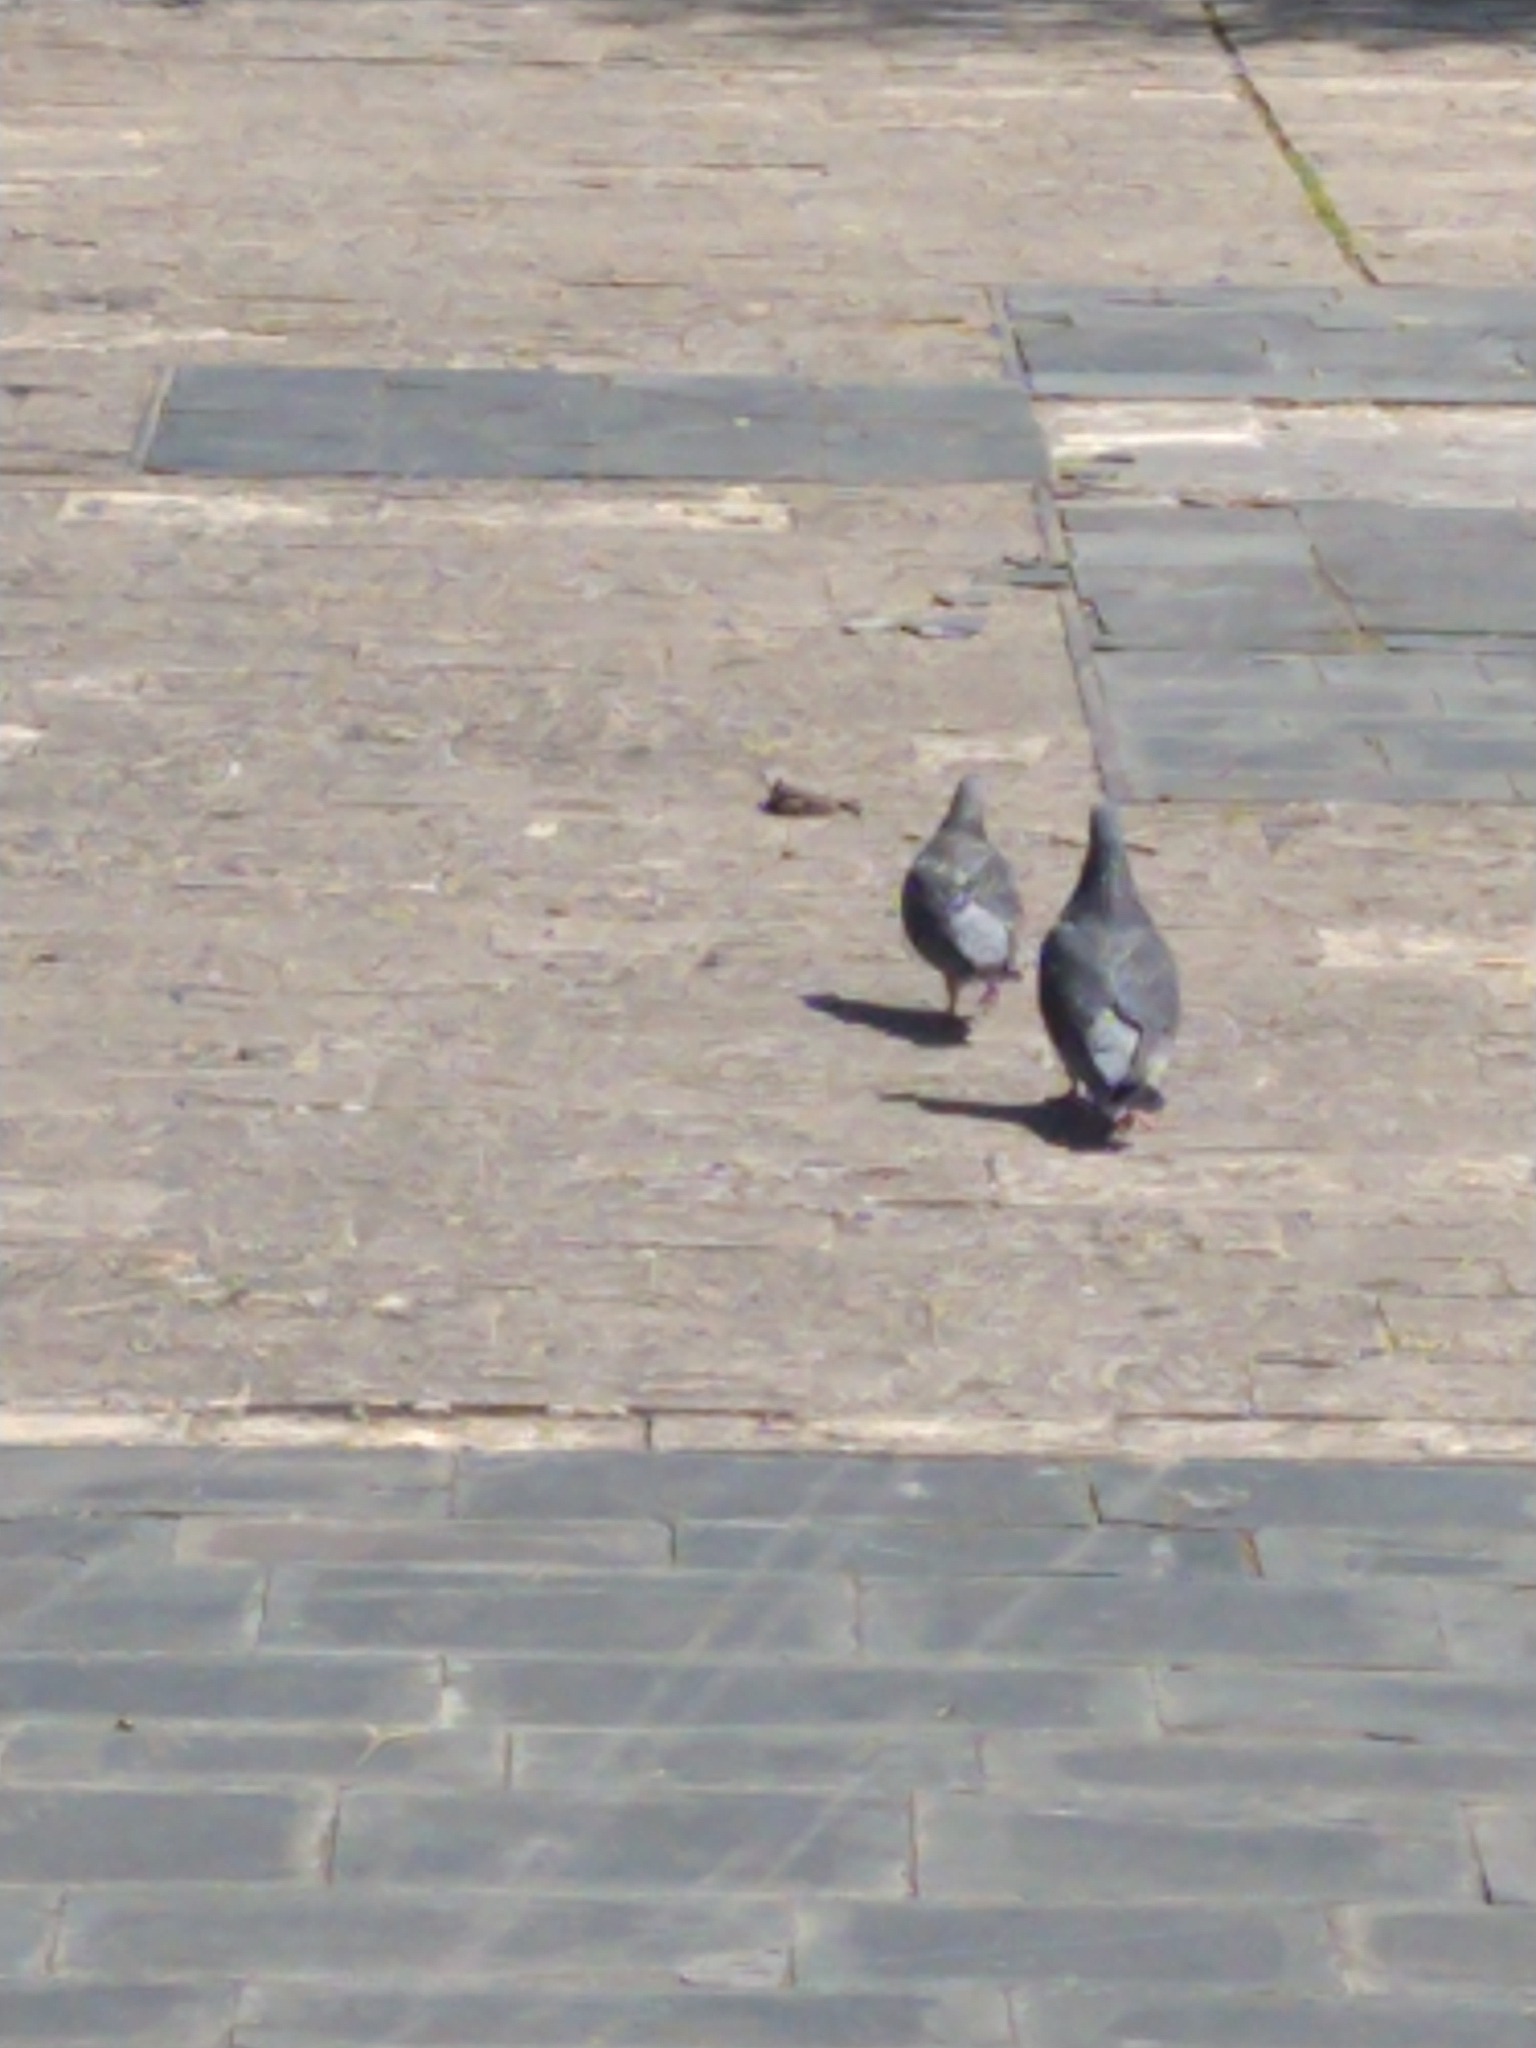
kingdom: Animalia
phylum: Chordata
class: Aves
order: Columbiformes
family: Columbidae
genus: Columba
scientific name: Columba livia
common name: Rock pigeon
